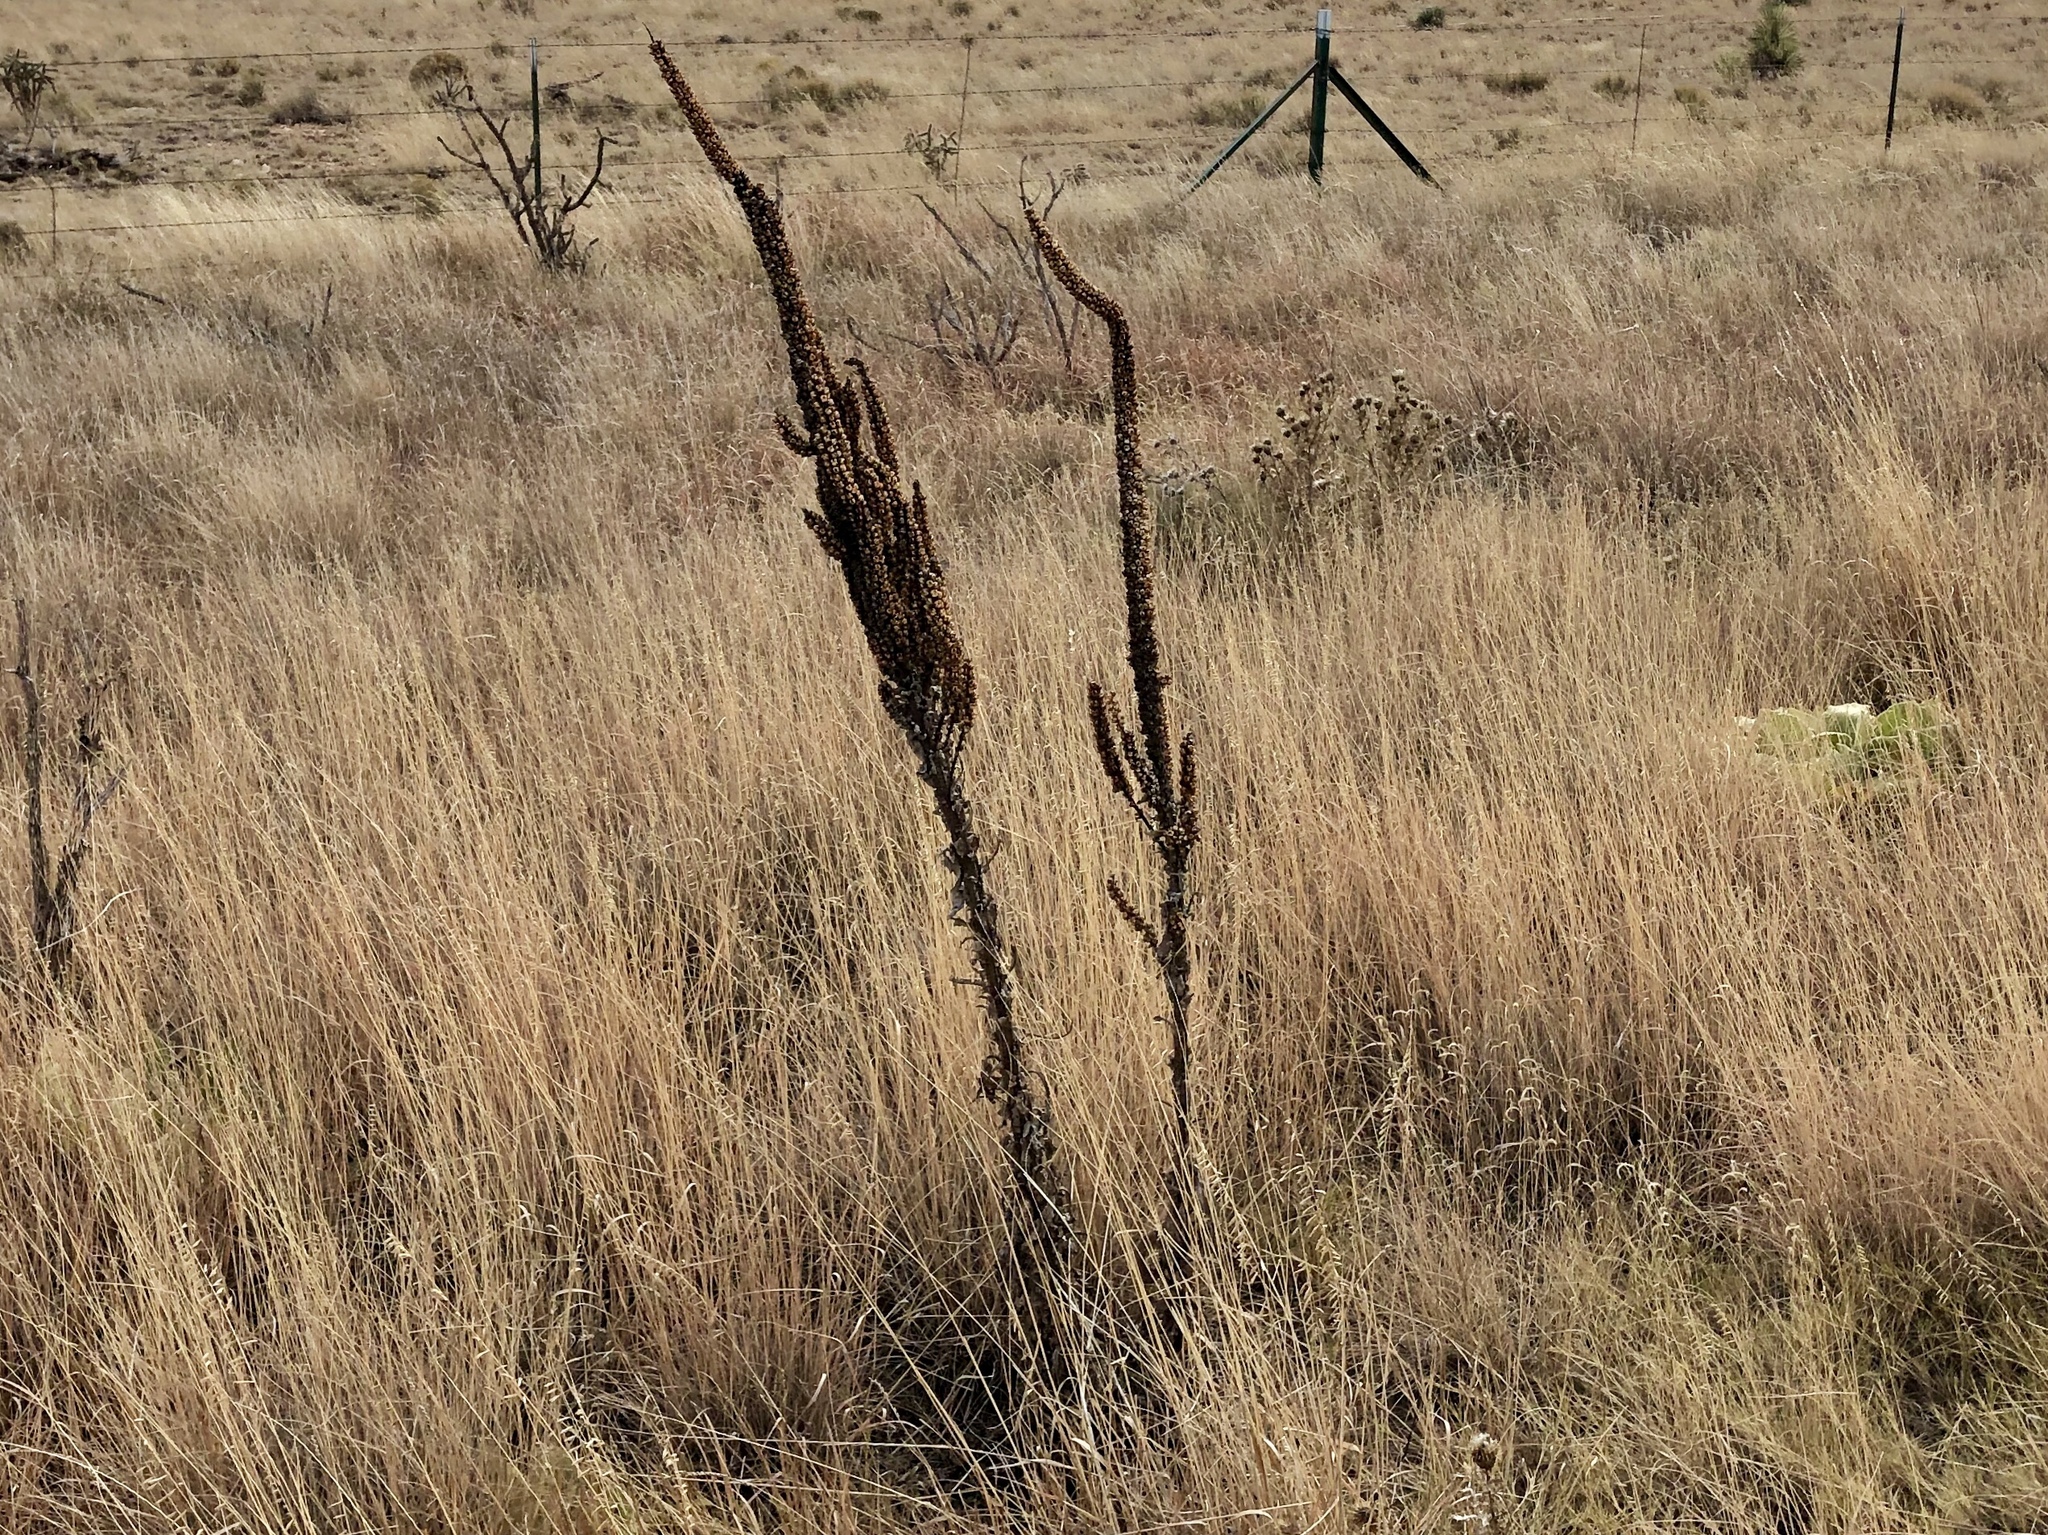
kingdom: Plantae
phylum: Tracheophyta
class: Magnoliopsida
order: Lamiales
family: Scrophulariaceae
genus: Verbascum
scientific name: Verbascum thapsus
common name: Common mullein
